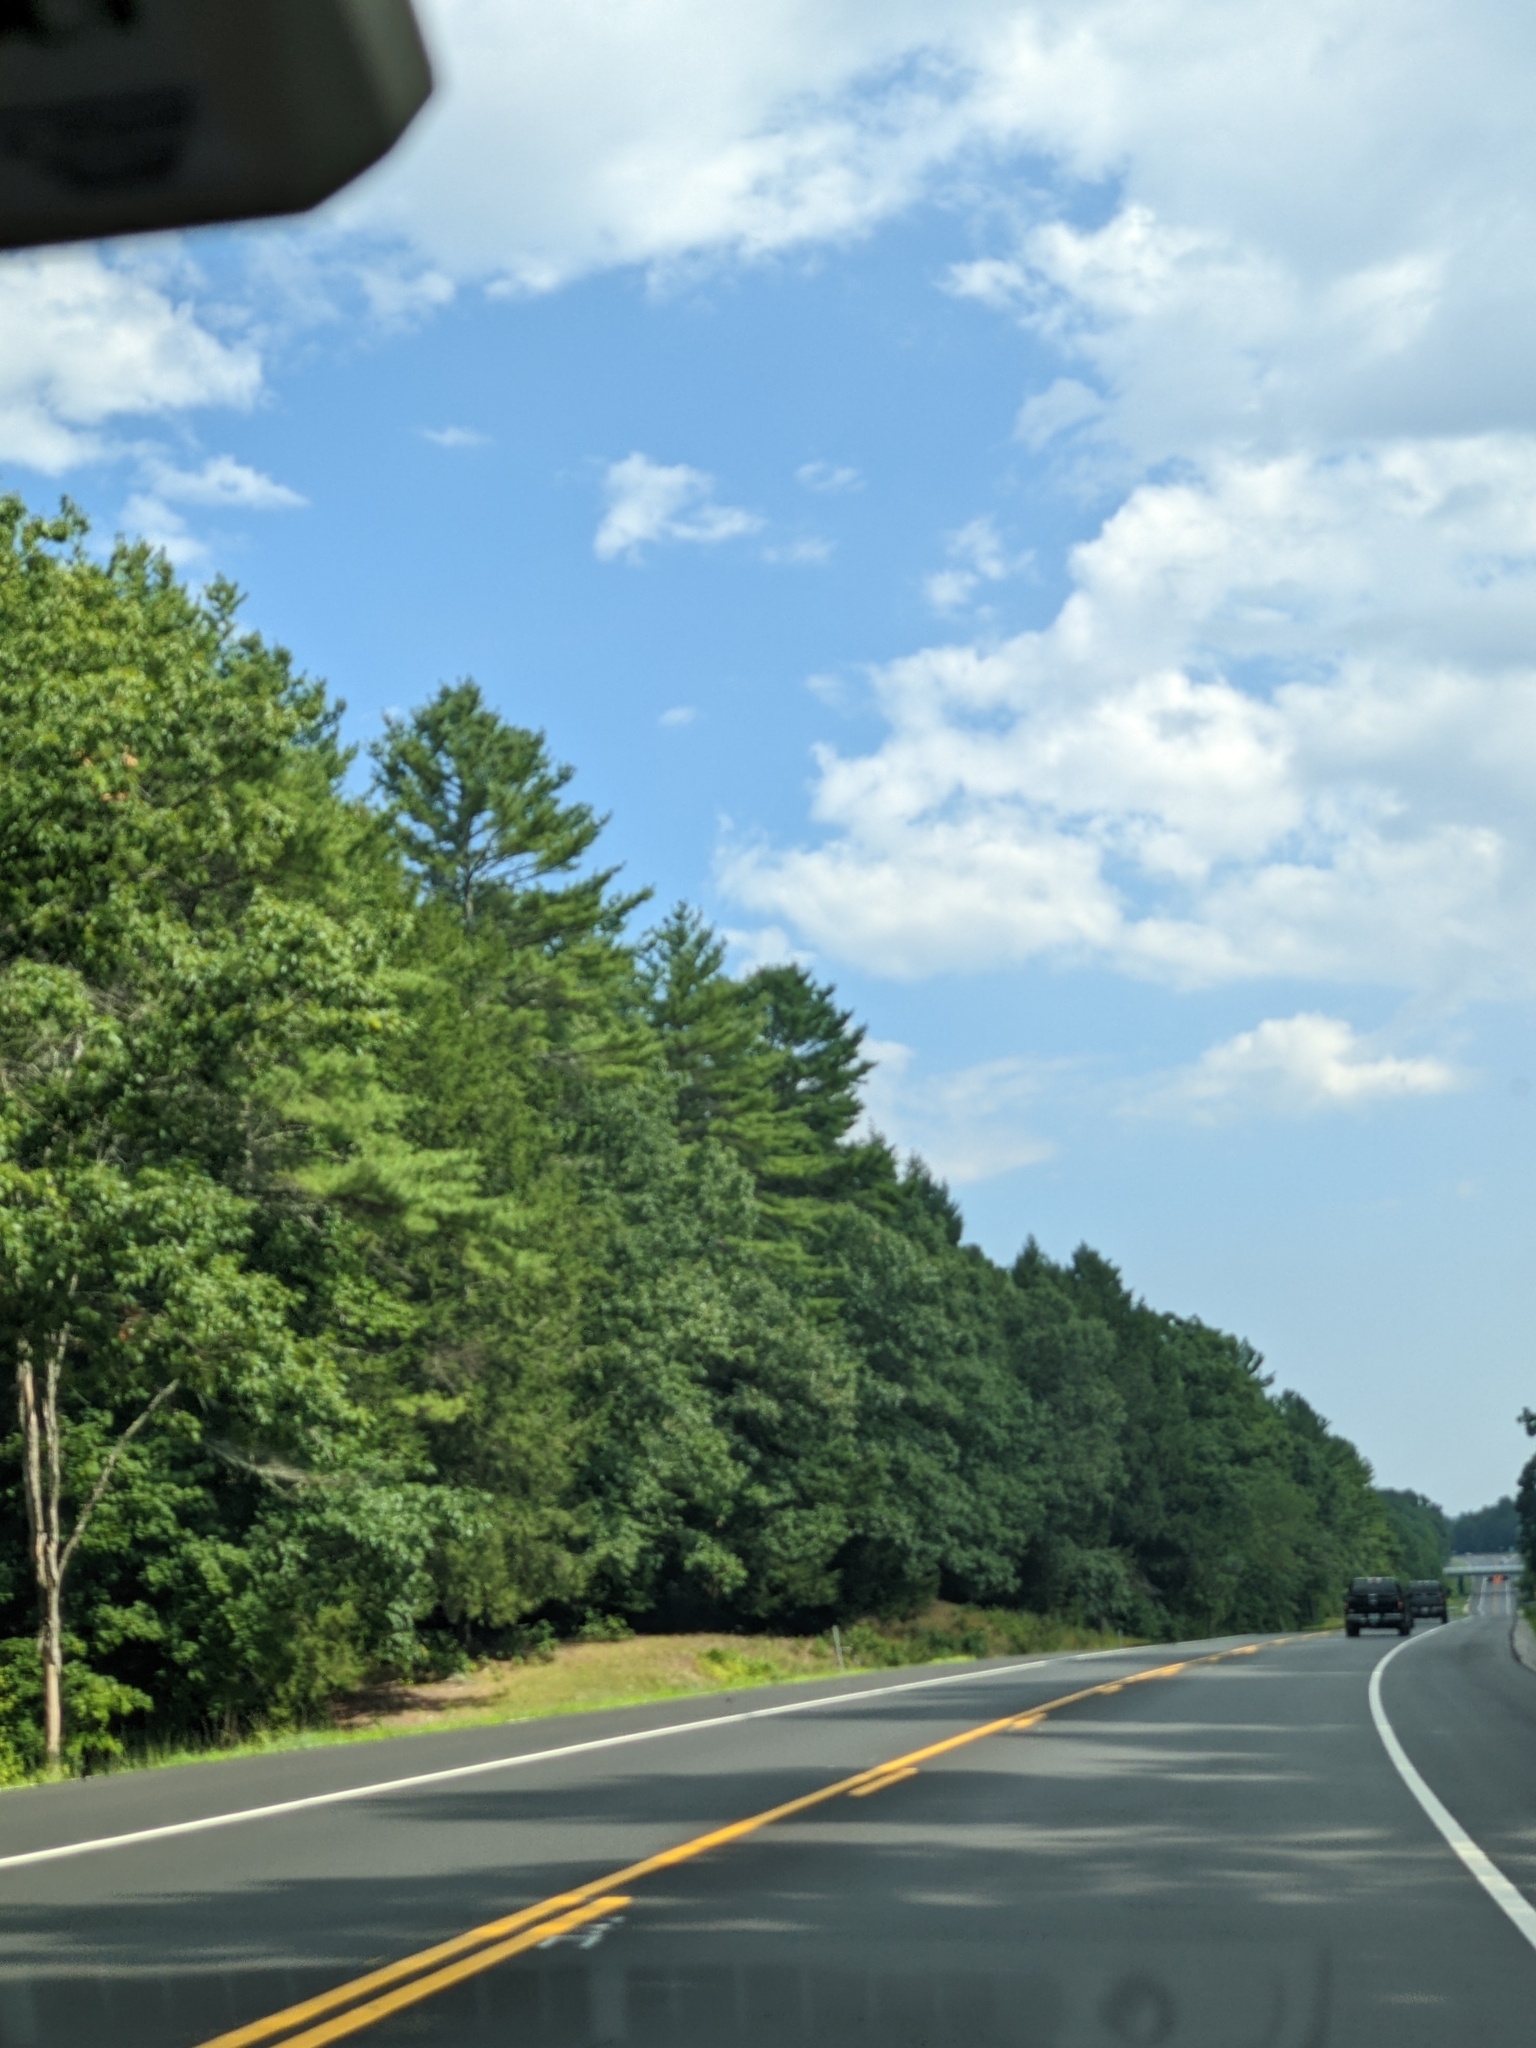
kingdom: Plantae
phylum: Tracheophyta
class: Pinopsida
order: Pinales
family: Pinaceae
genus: Pinus
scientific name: Pinus strobus
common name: Weymouth pine
